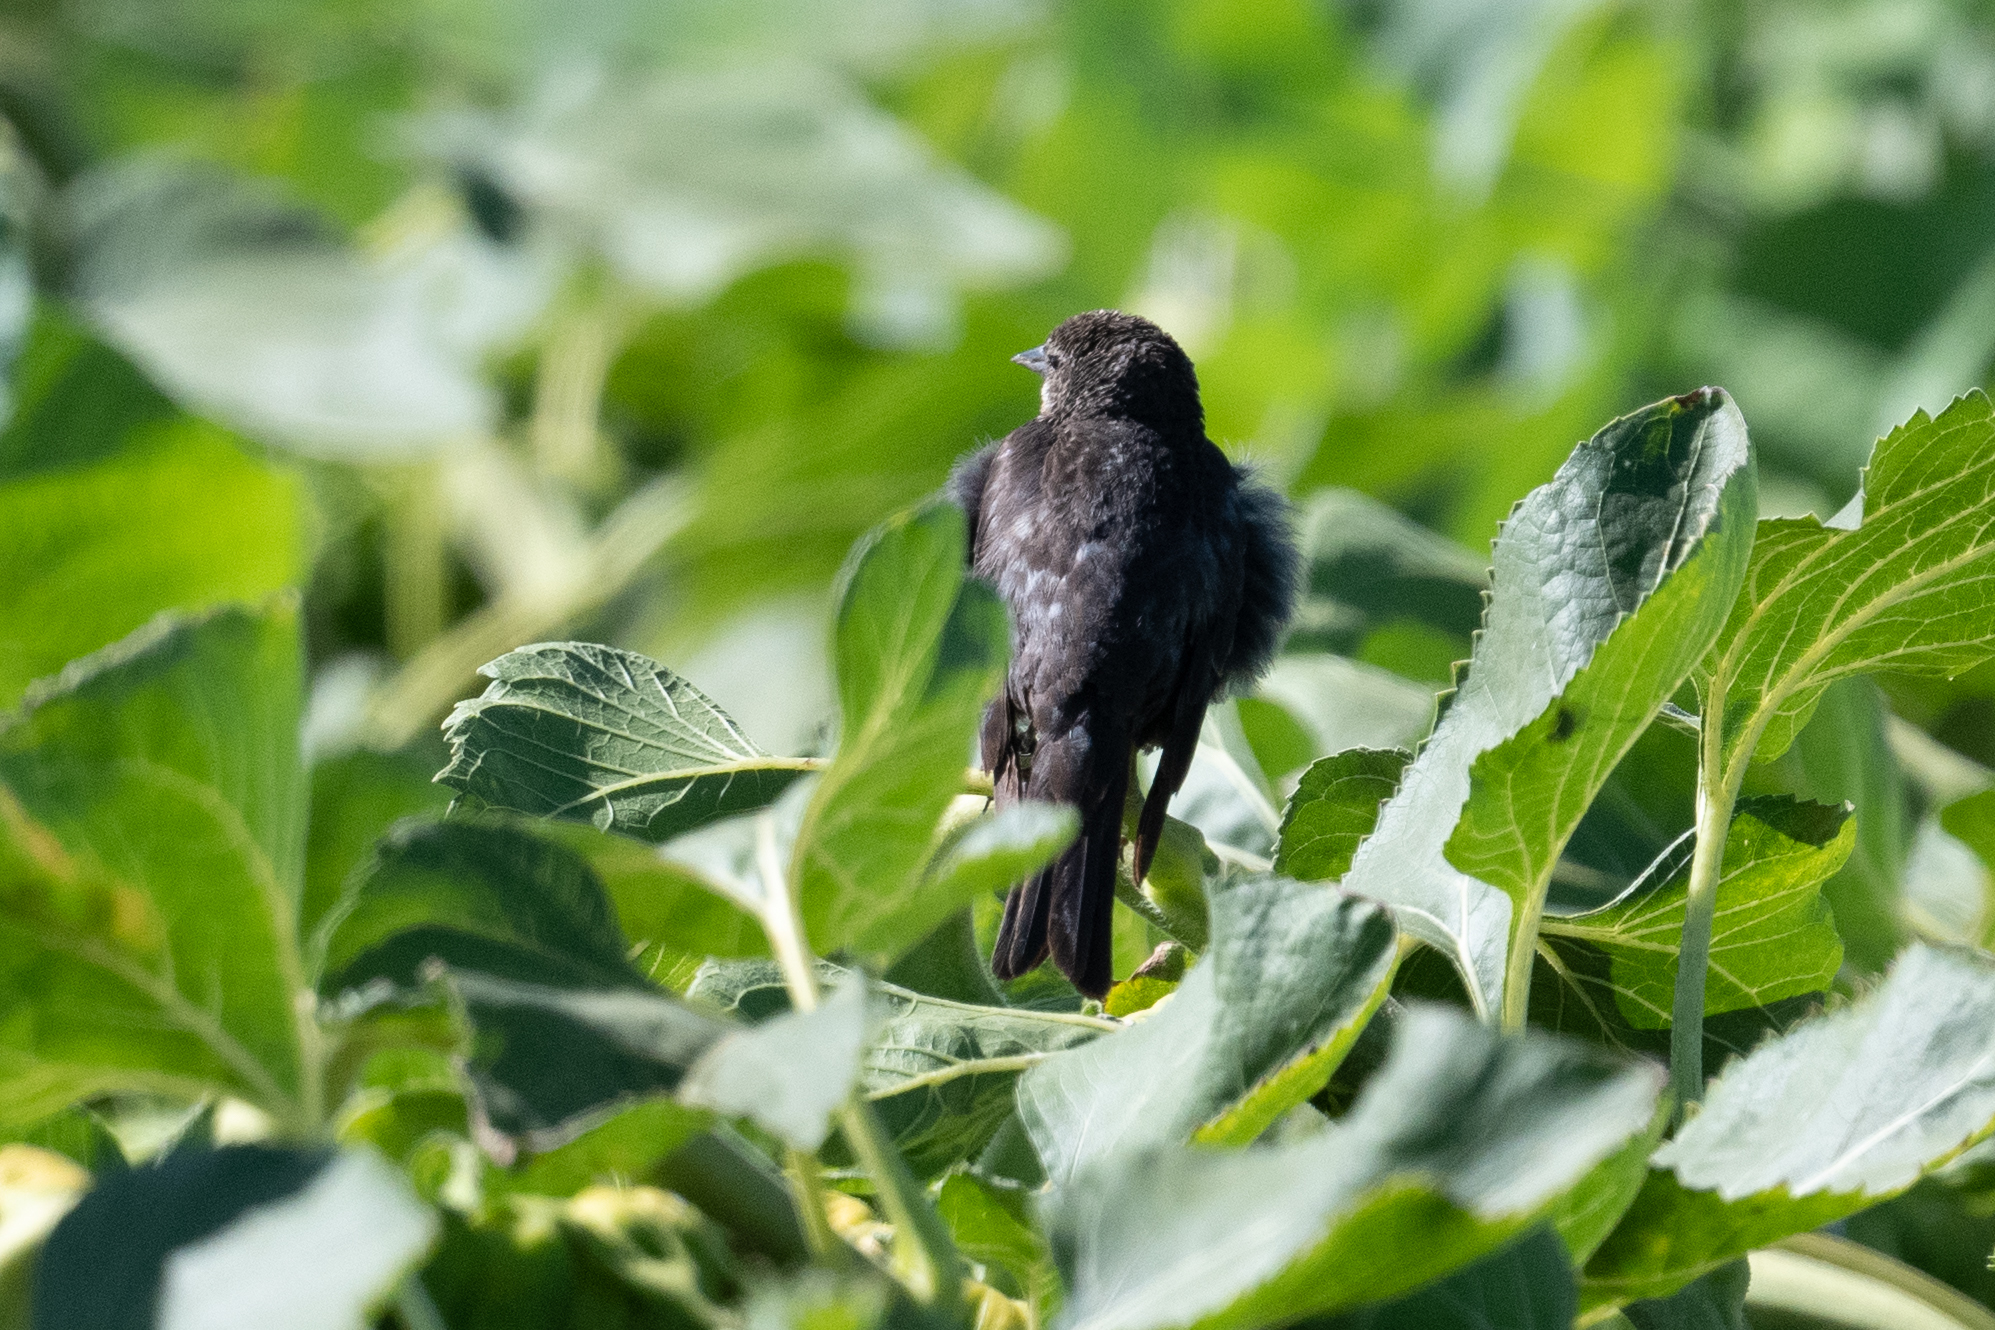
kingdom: Animalia
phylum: Chordata
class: Aves
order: Passeriformes
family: Icteridae
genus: Agelaius
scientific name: Agelaius tricolor
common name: Tricolored blackbird
